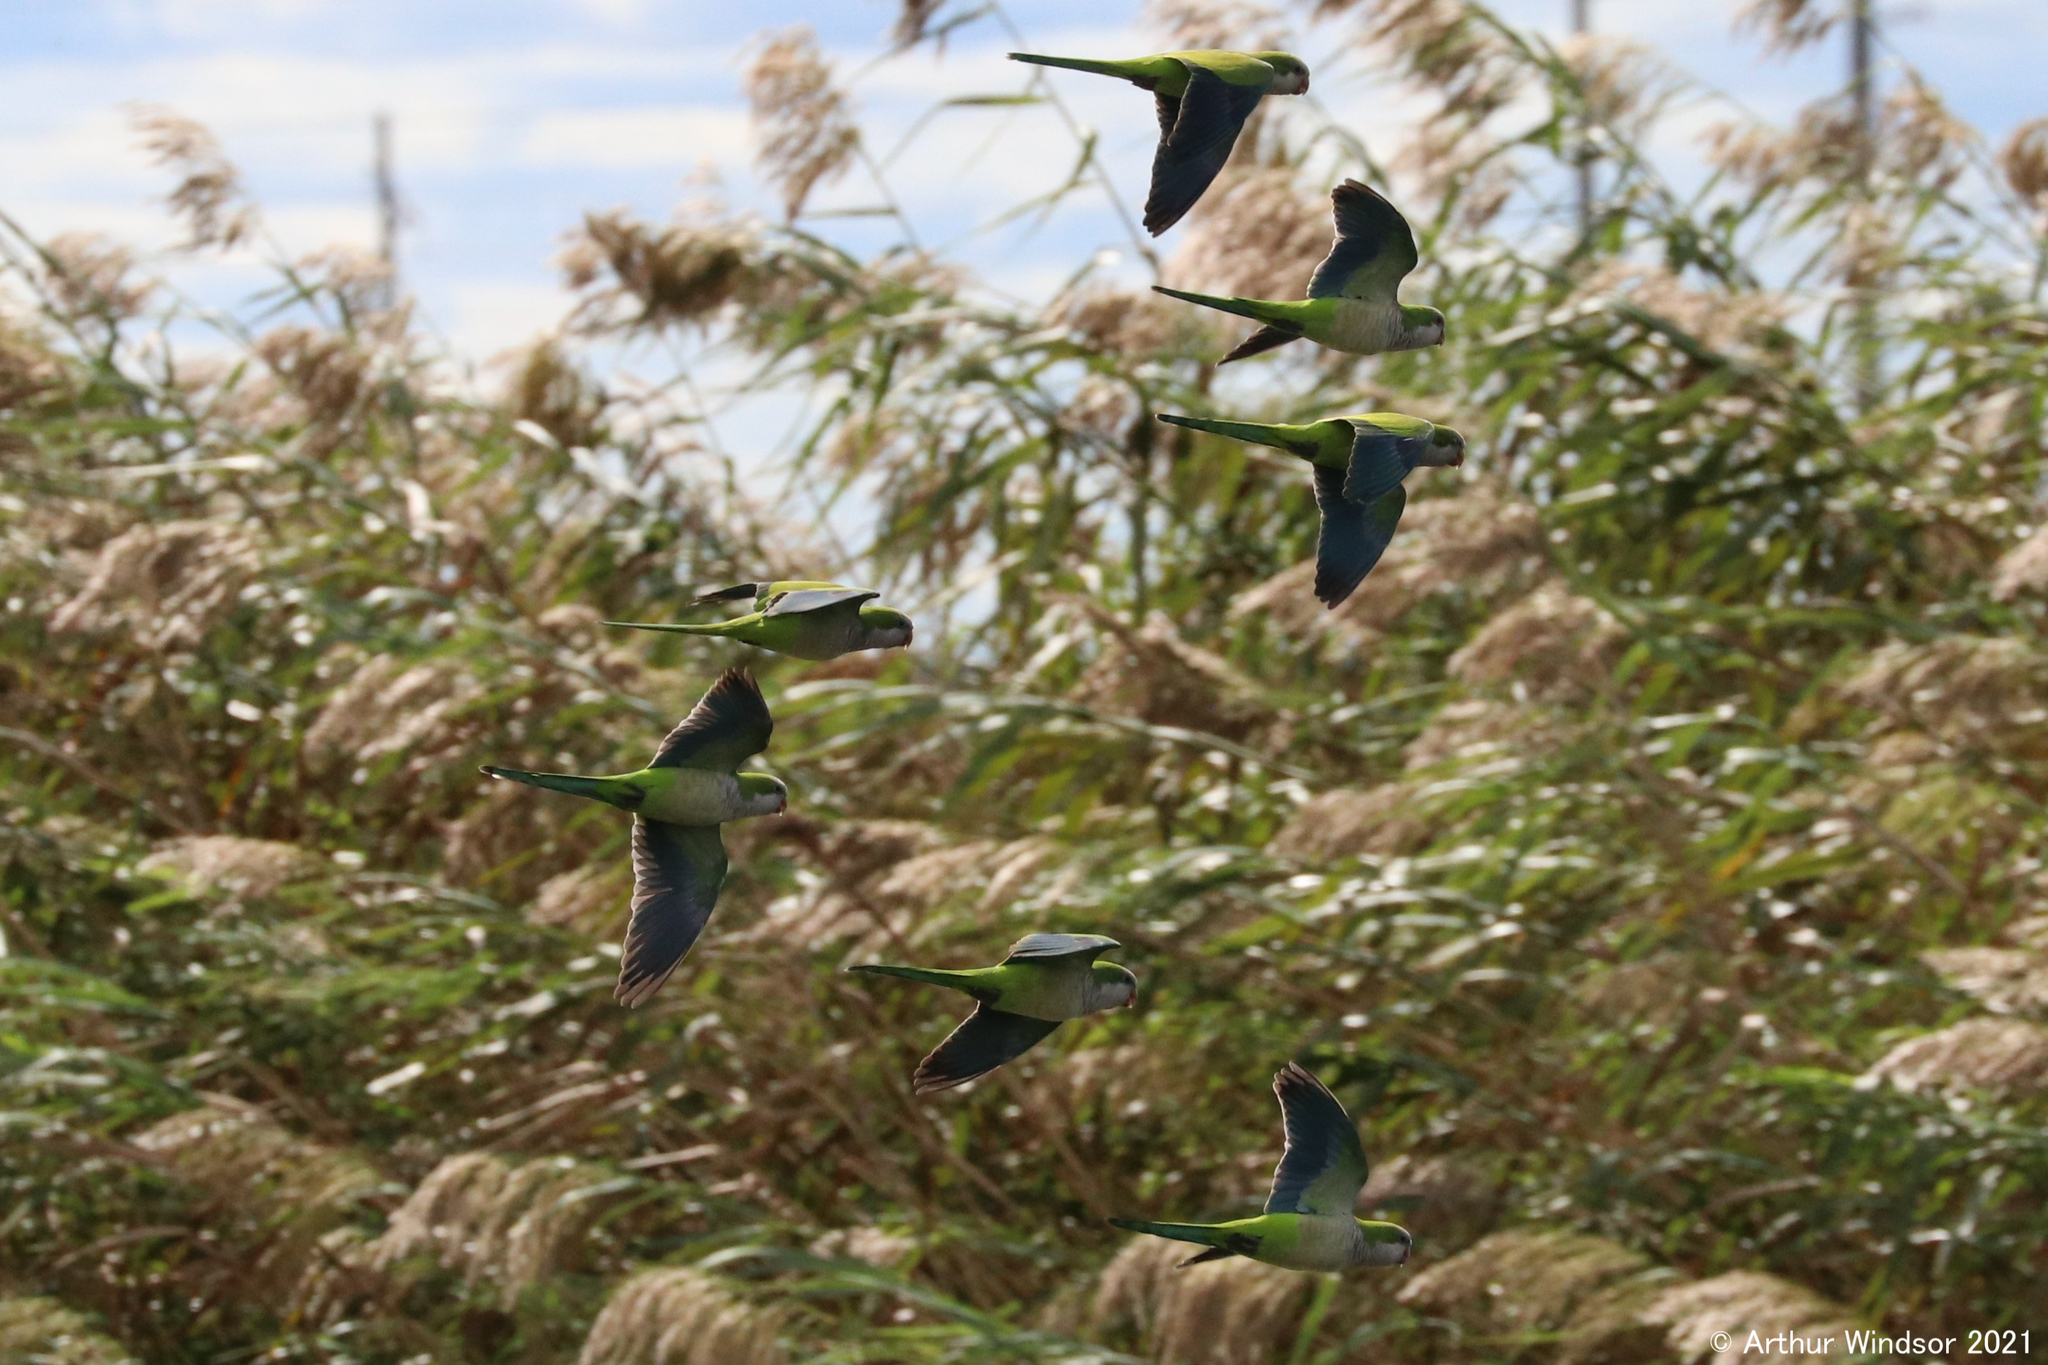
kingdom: Animalia
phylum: Chordata
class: Aves
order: Psittaciformes
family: Psittacidae
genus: Myiopsitta
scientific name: Myiopsitta monachus
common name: Monk parakeet
